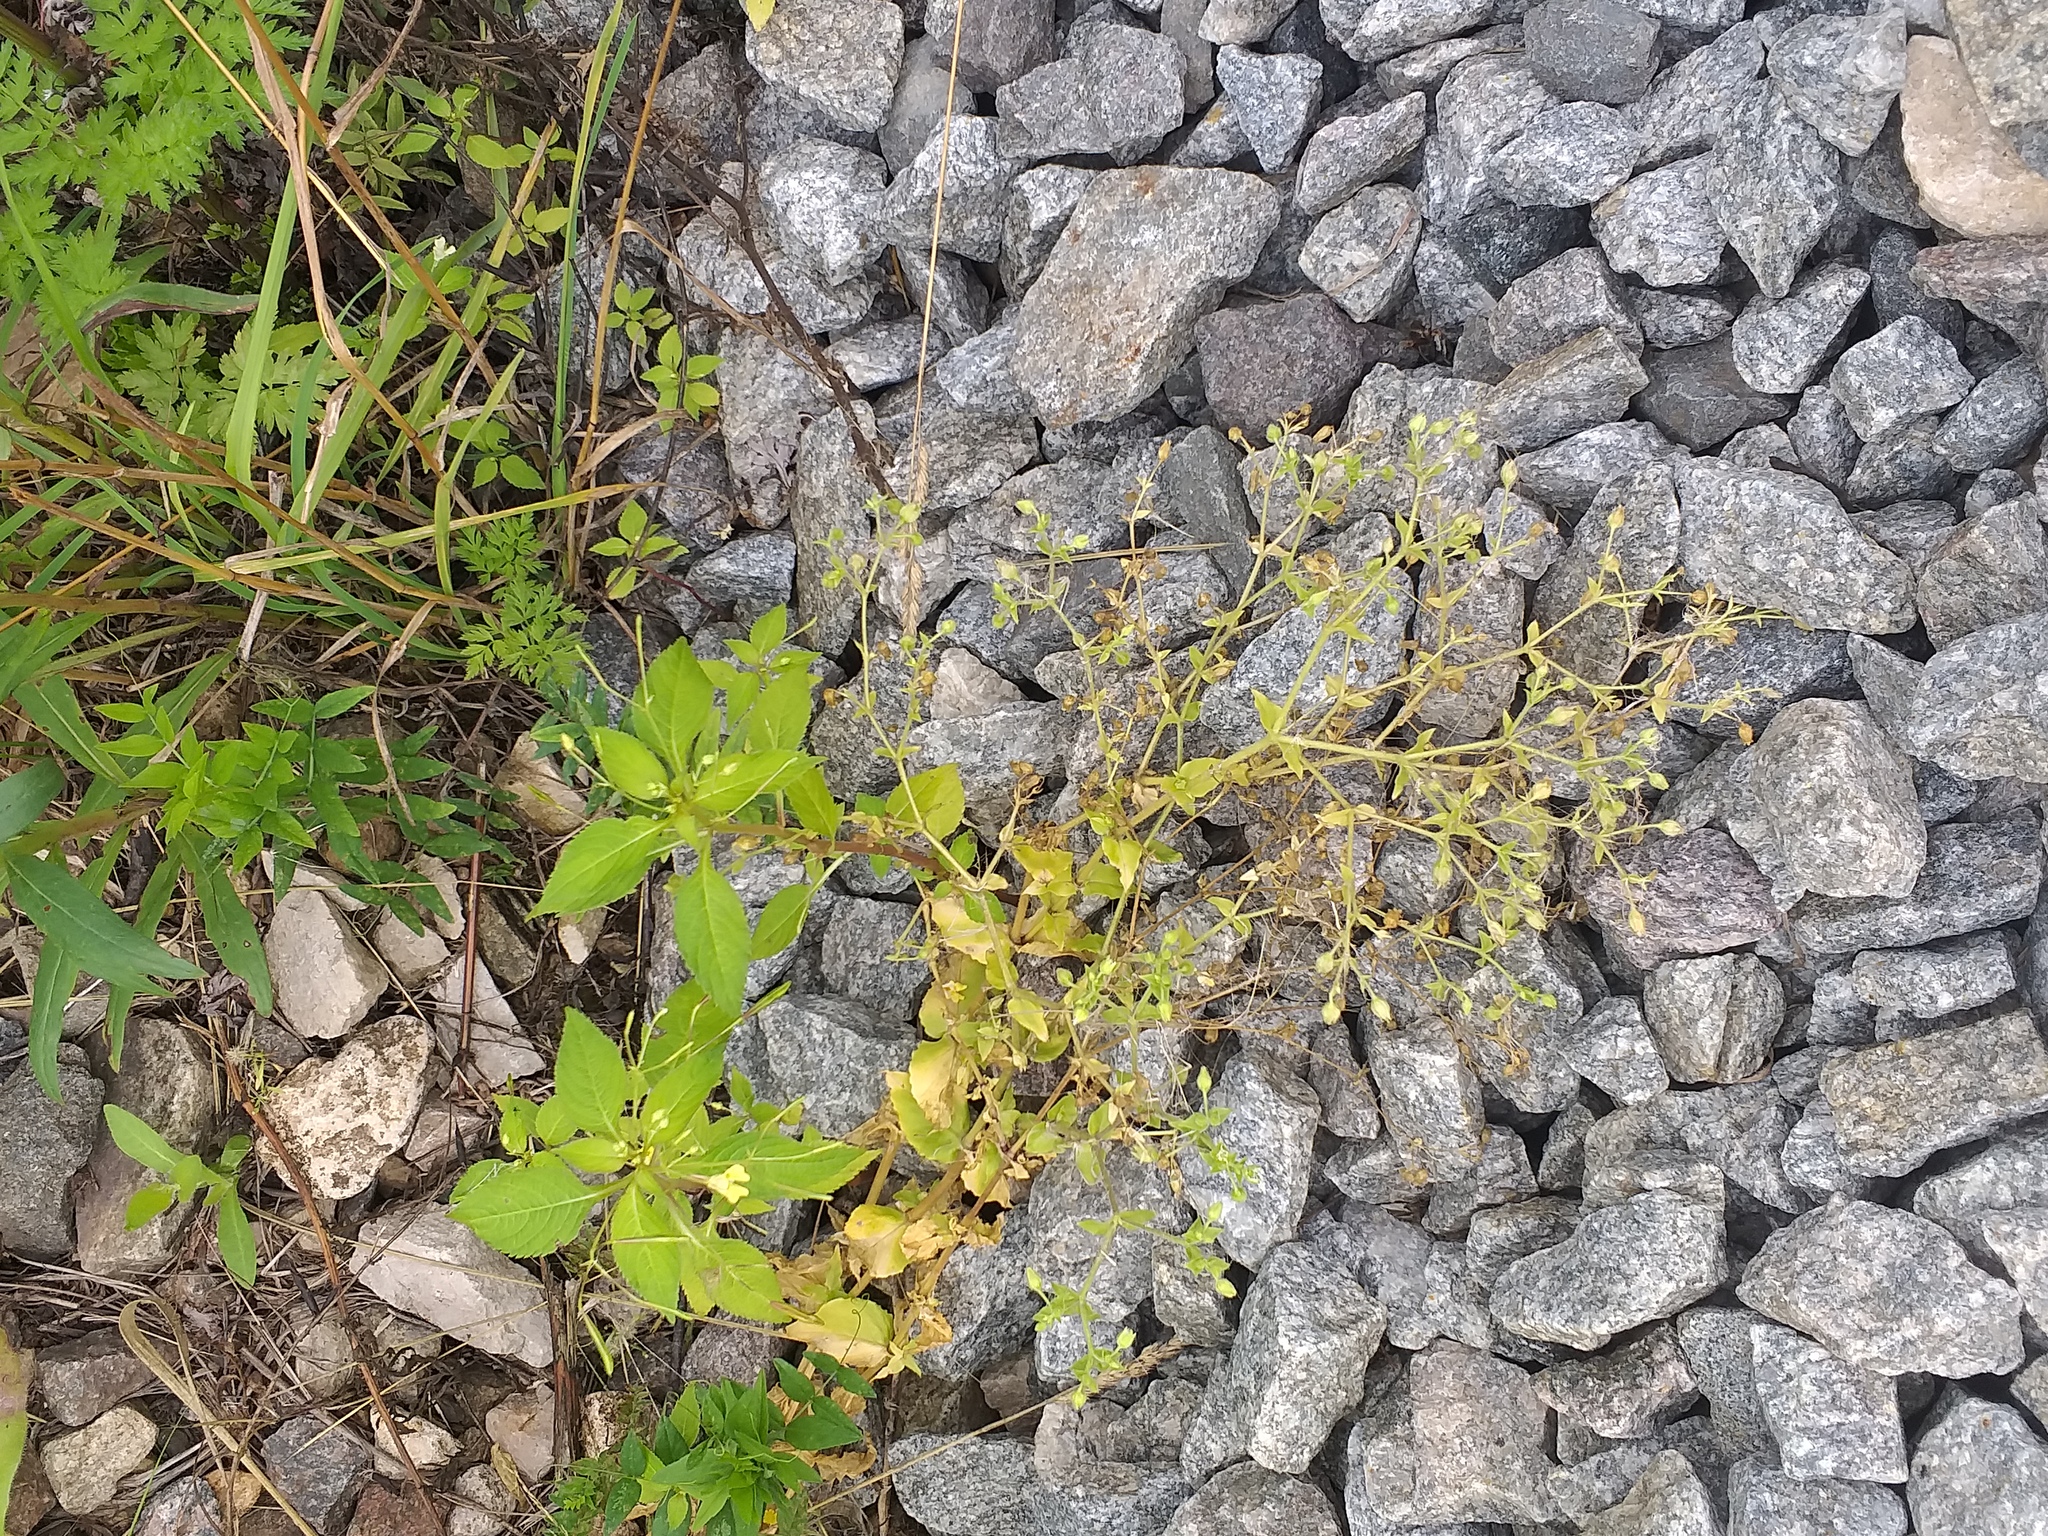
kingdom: Plantae
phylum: Tracheophyta
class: Magnoliopsida
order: Caryophyllales
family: Caryophyllaceae
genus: Stellaria
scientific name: Stellaria aquatica
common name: Water chickweed
